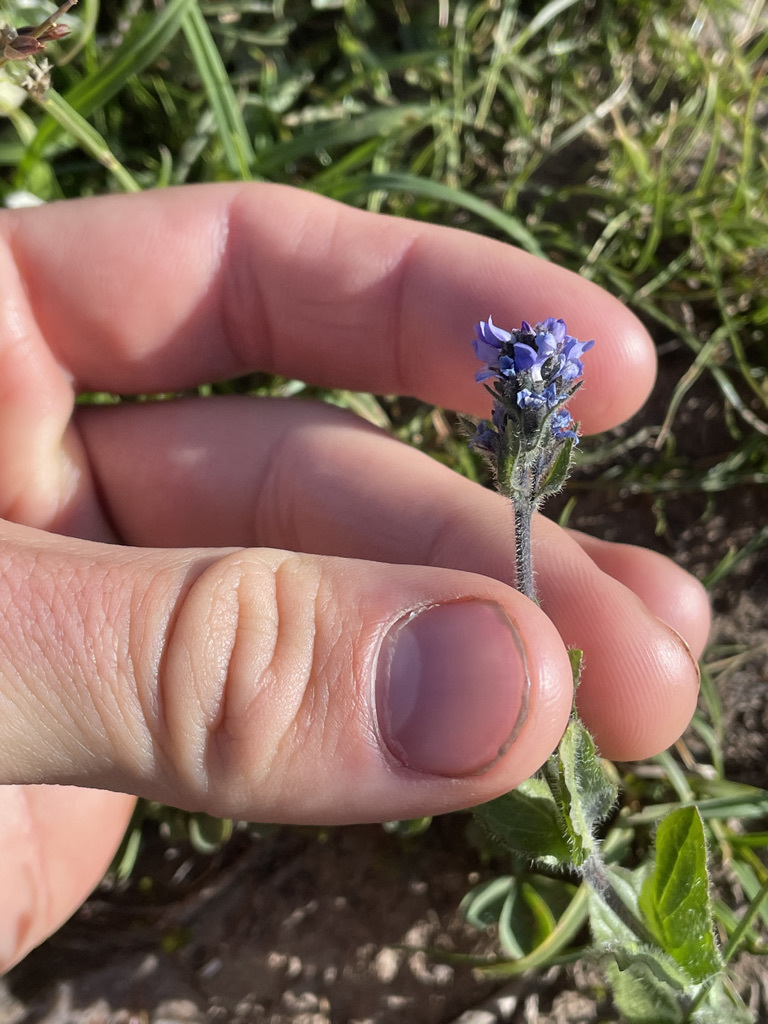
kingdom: Plantae
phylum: Tracheophyta
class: Magnoliopsida
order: Lamiales
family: Plantaginaceae
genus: Veronica
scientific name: Veronica wormskjoldii
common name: American alpine speedwell
